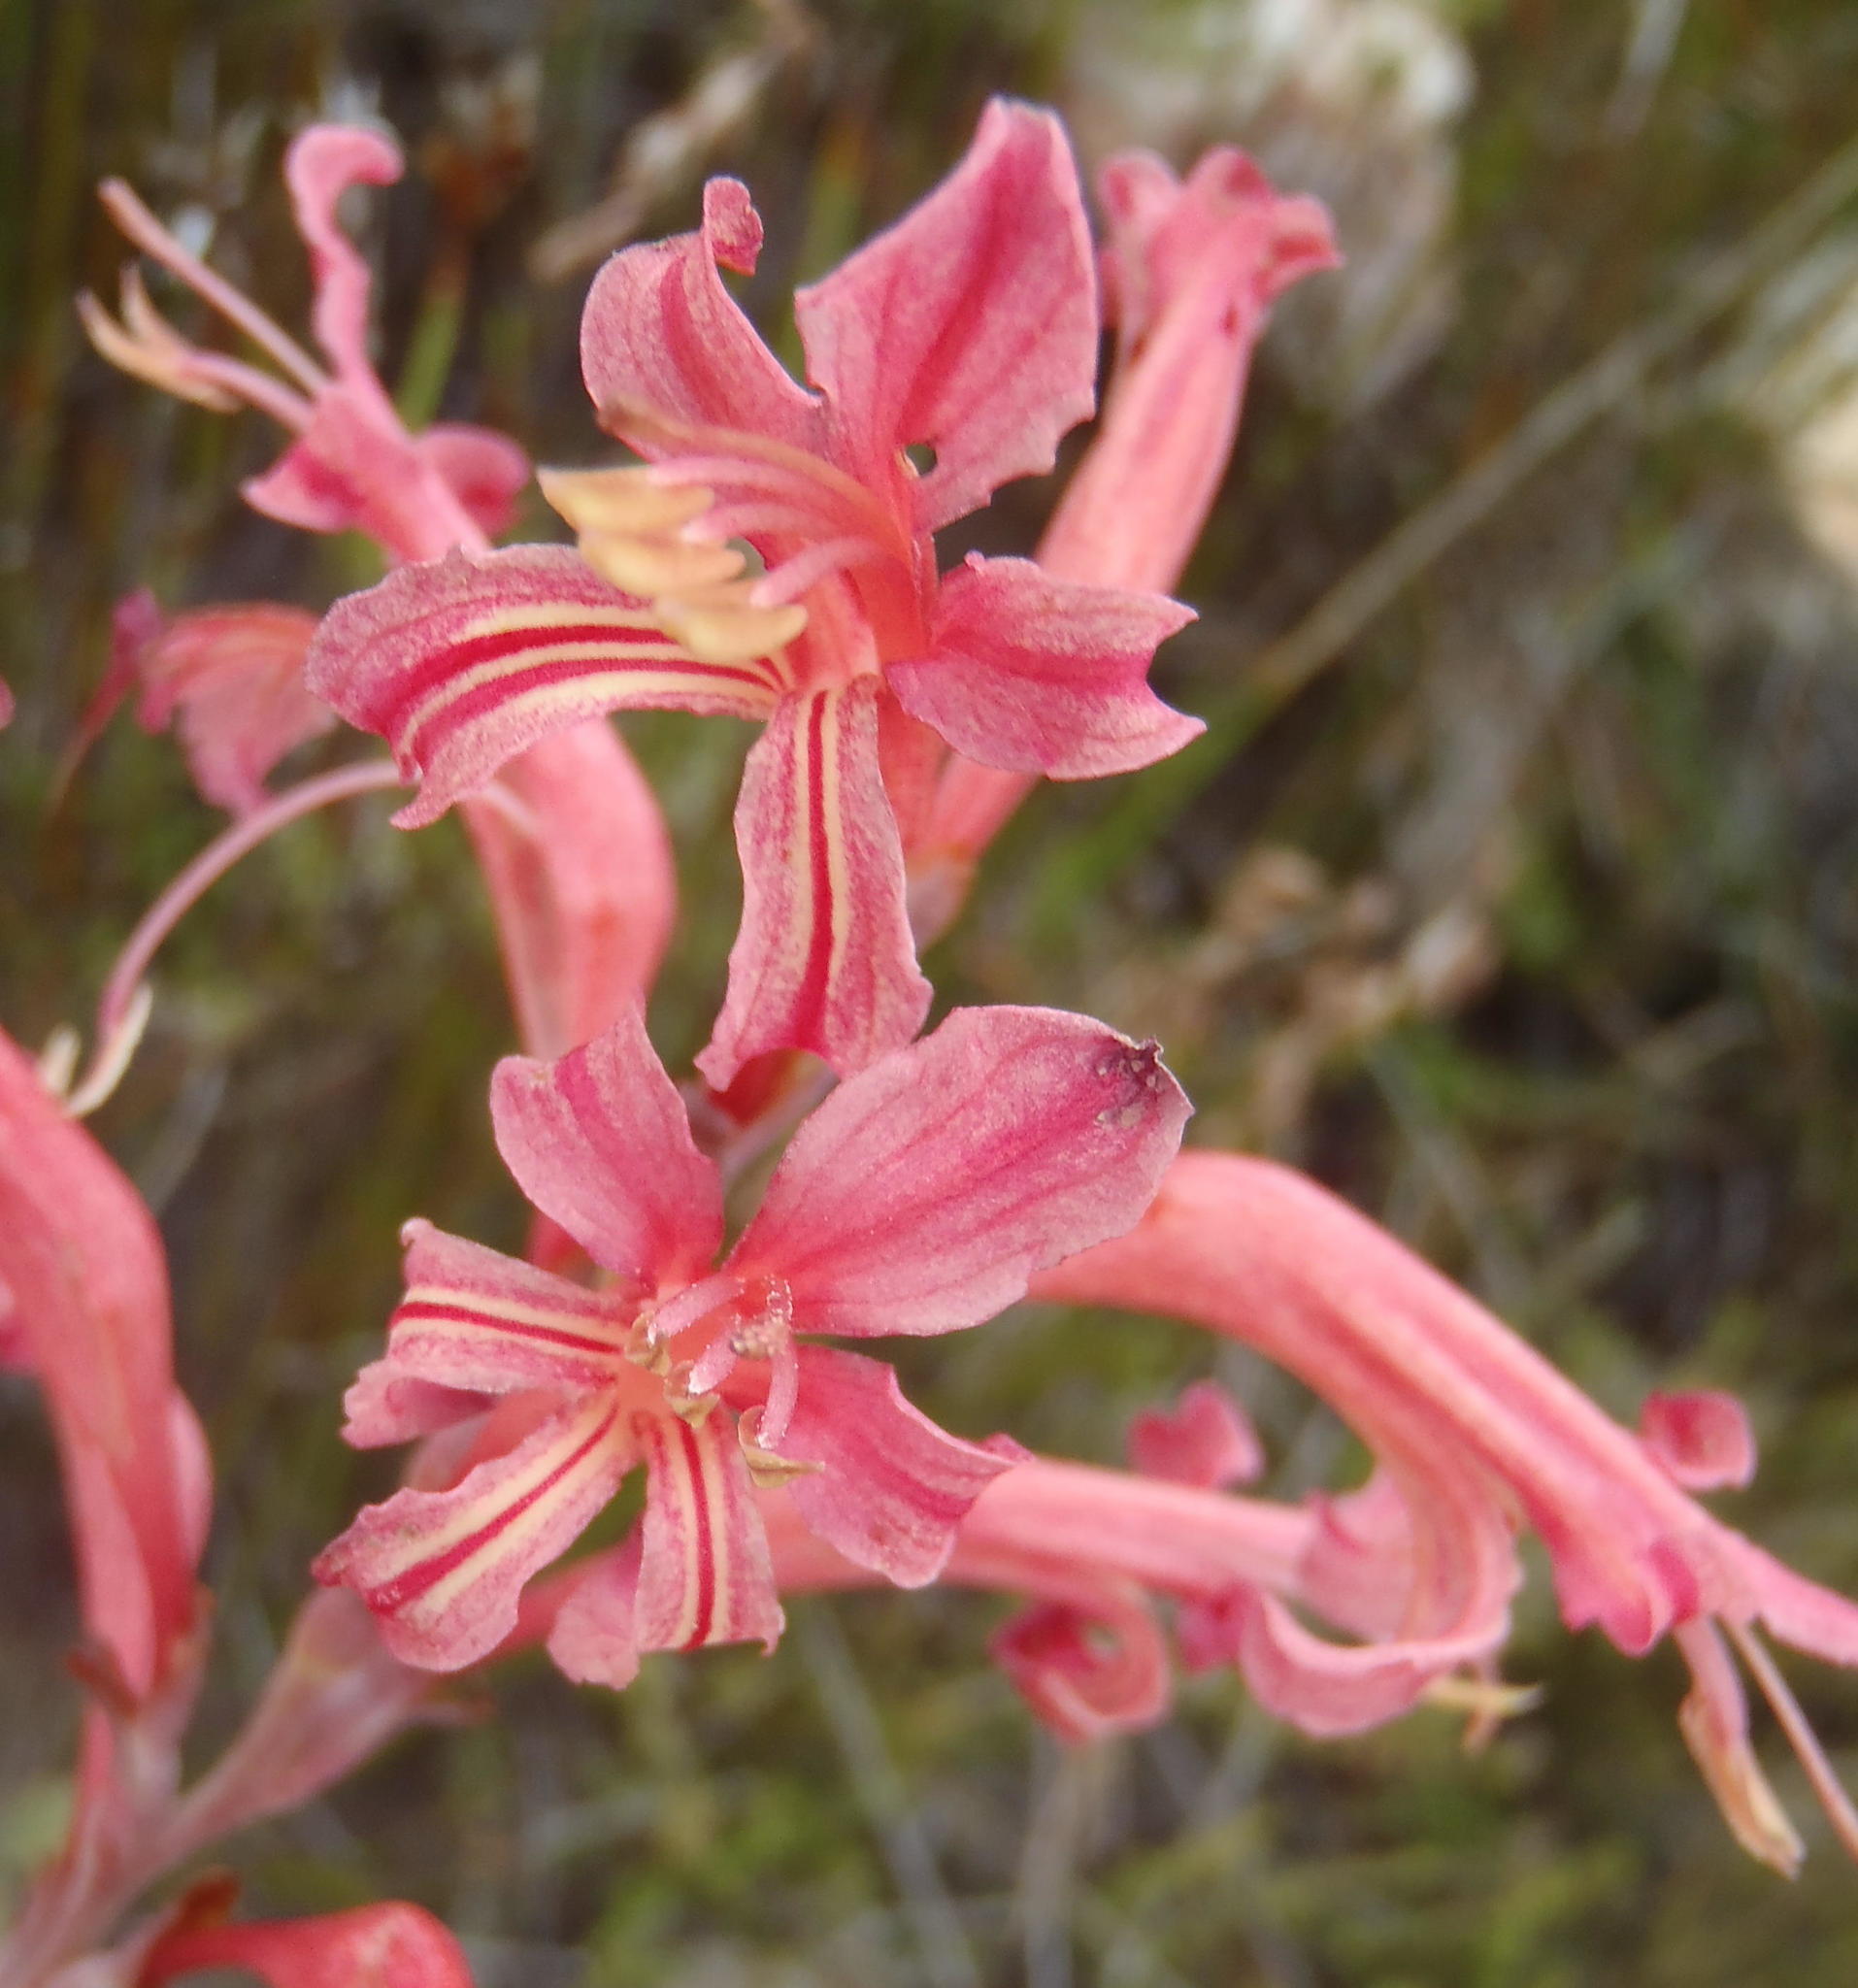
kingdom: Plantae
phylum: Tracheophyta
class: Liliopsida
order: Asparagales
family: Iridaceae
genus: Tritoniopsis
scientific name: Tritoniopsis antholyza
